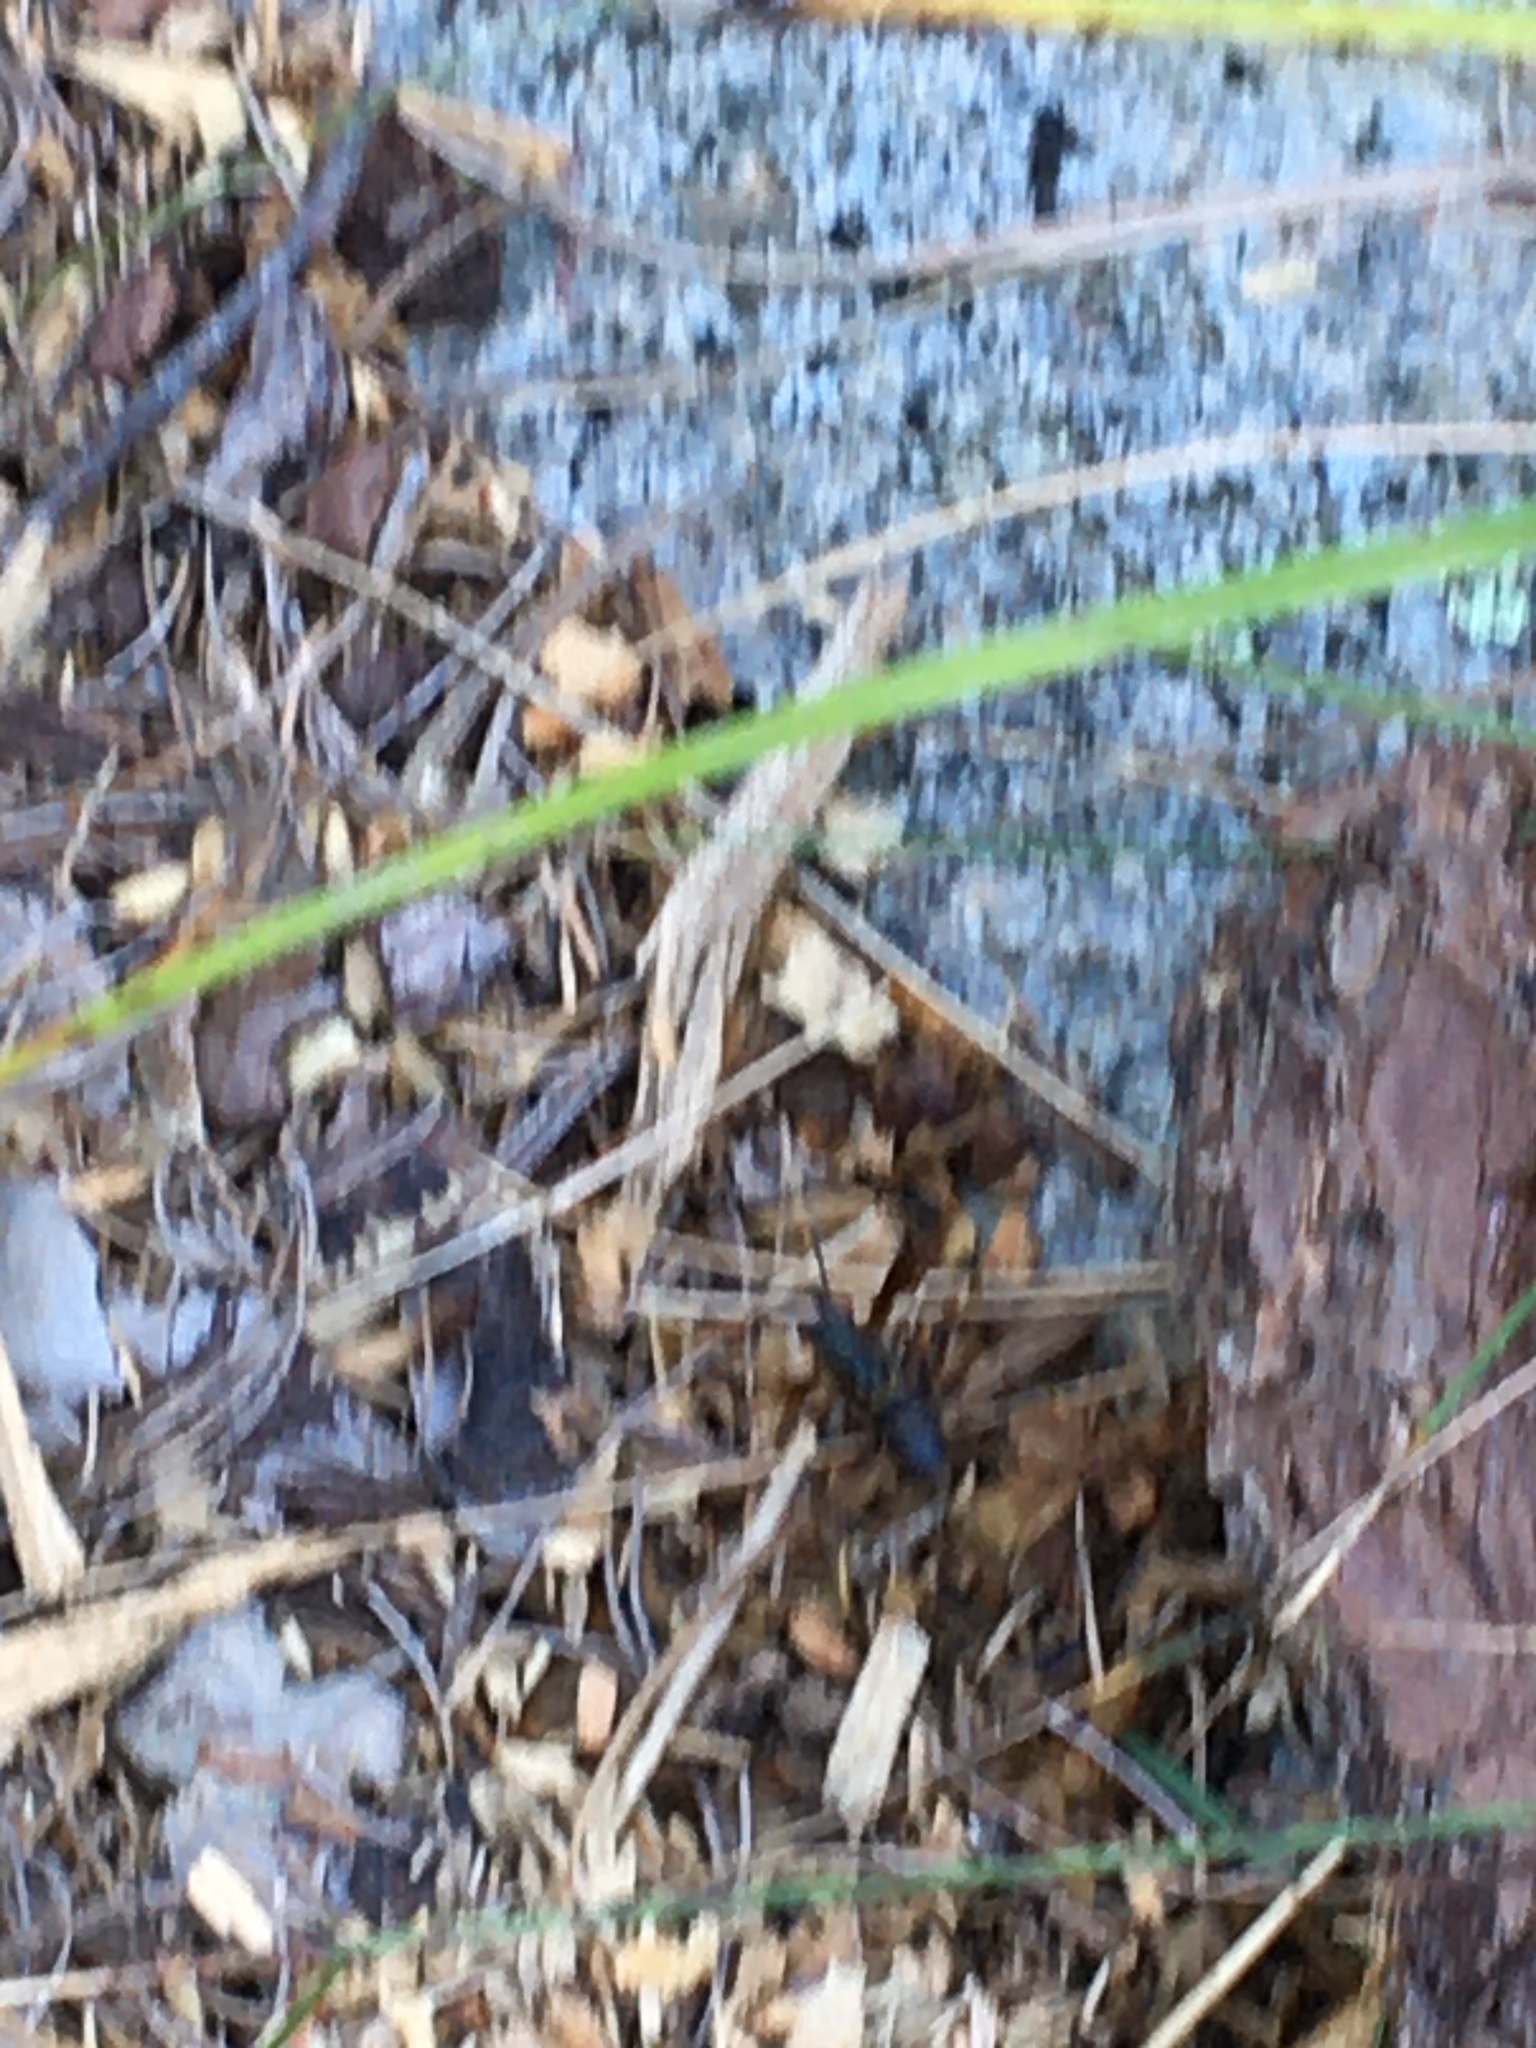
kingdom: Animalia
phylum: Arthropoda
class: Insecta
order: Hymenoptera
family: Vespidae
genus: Fuscopolistes
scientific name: Fuscopolistes
